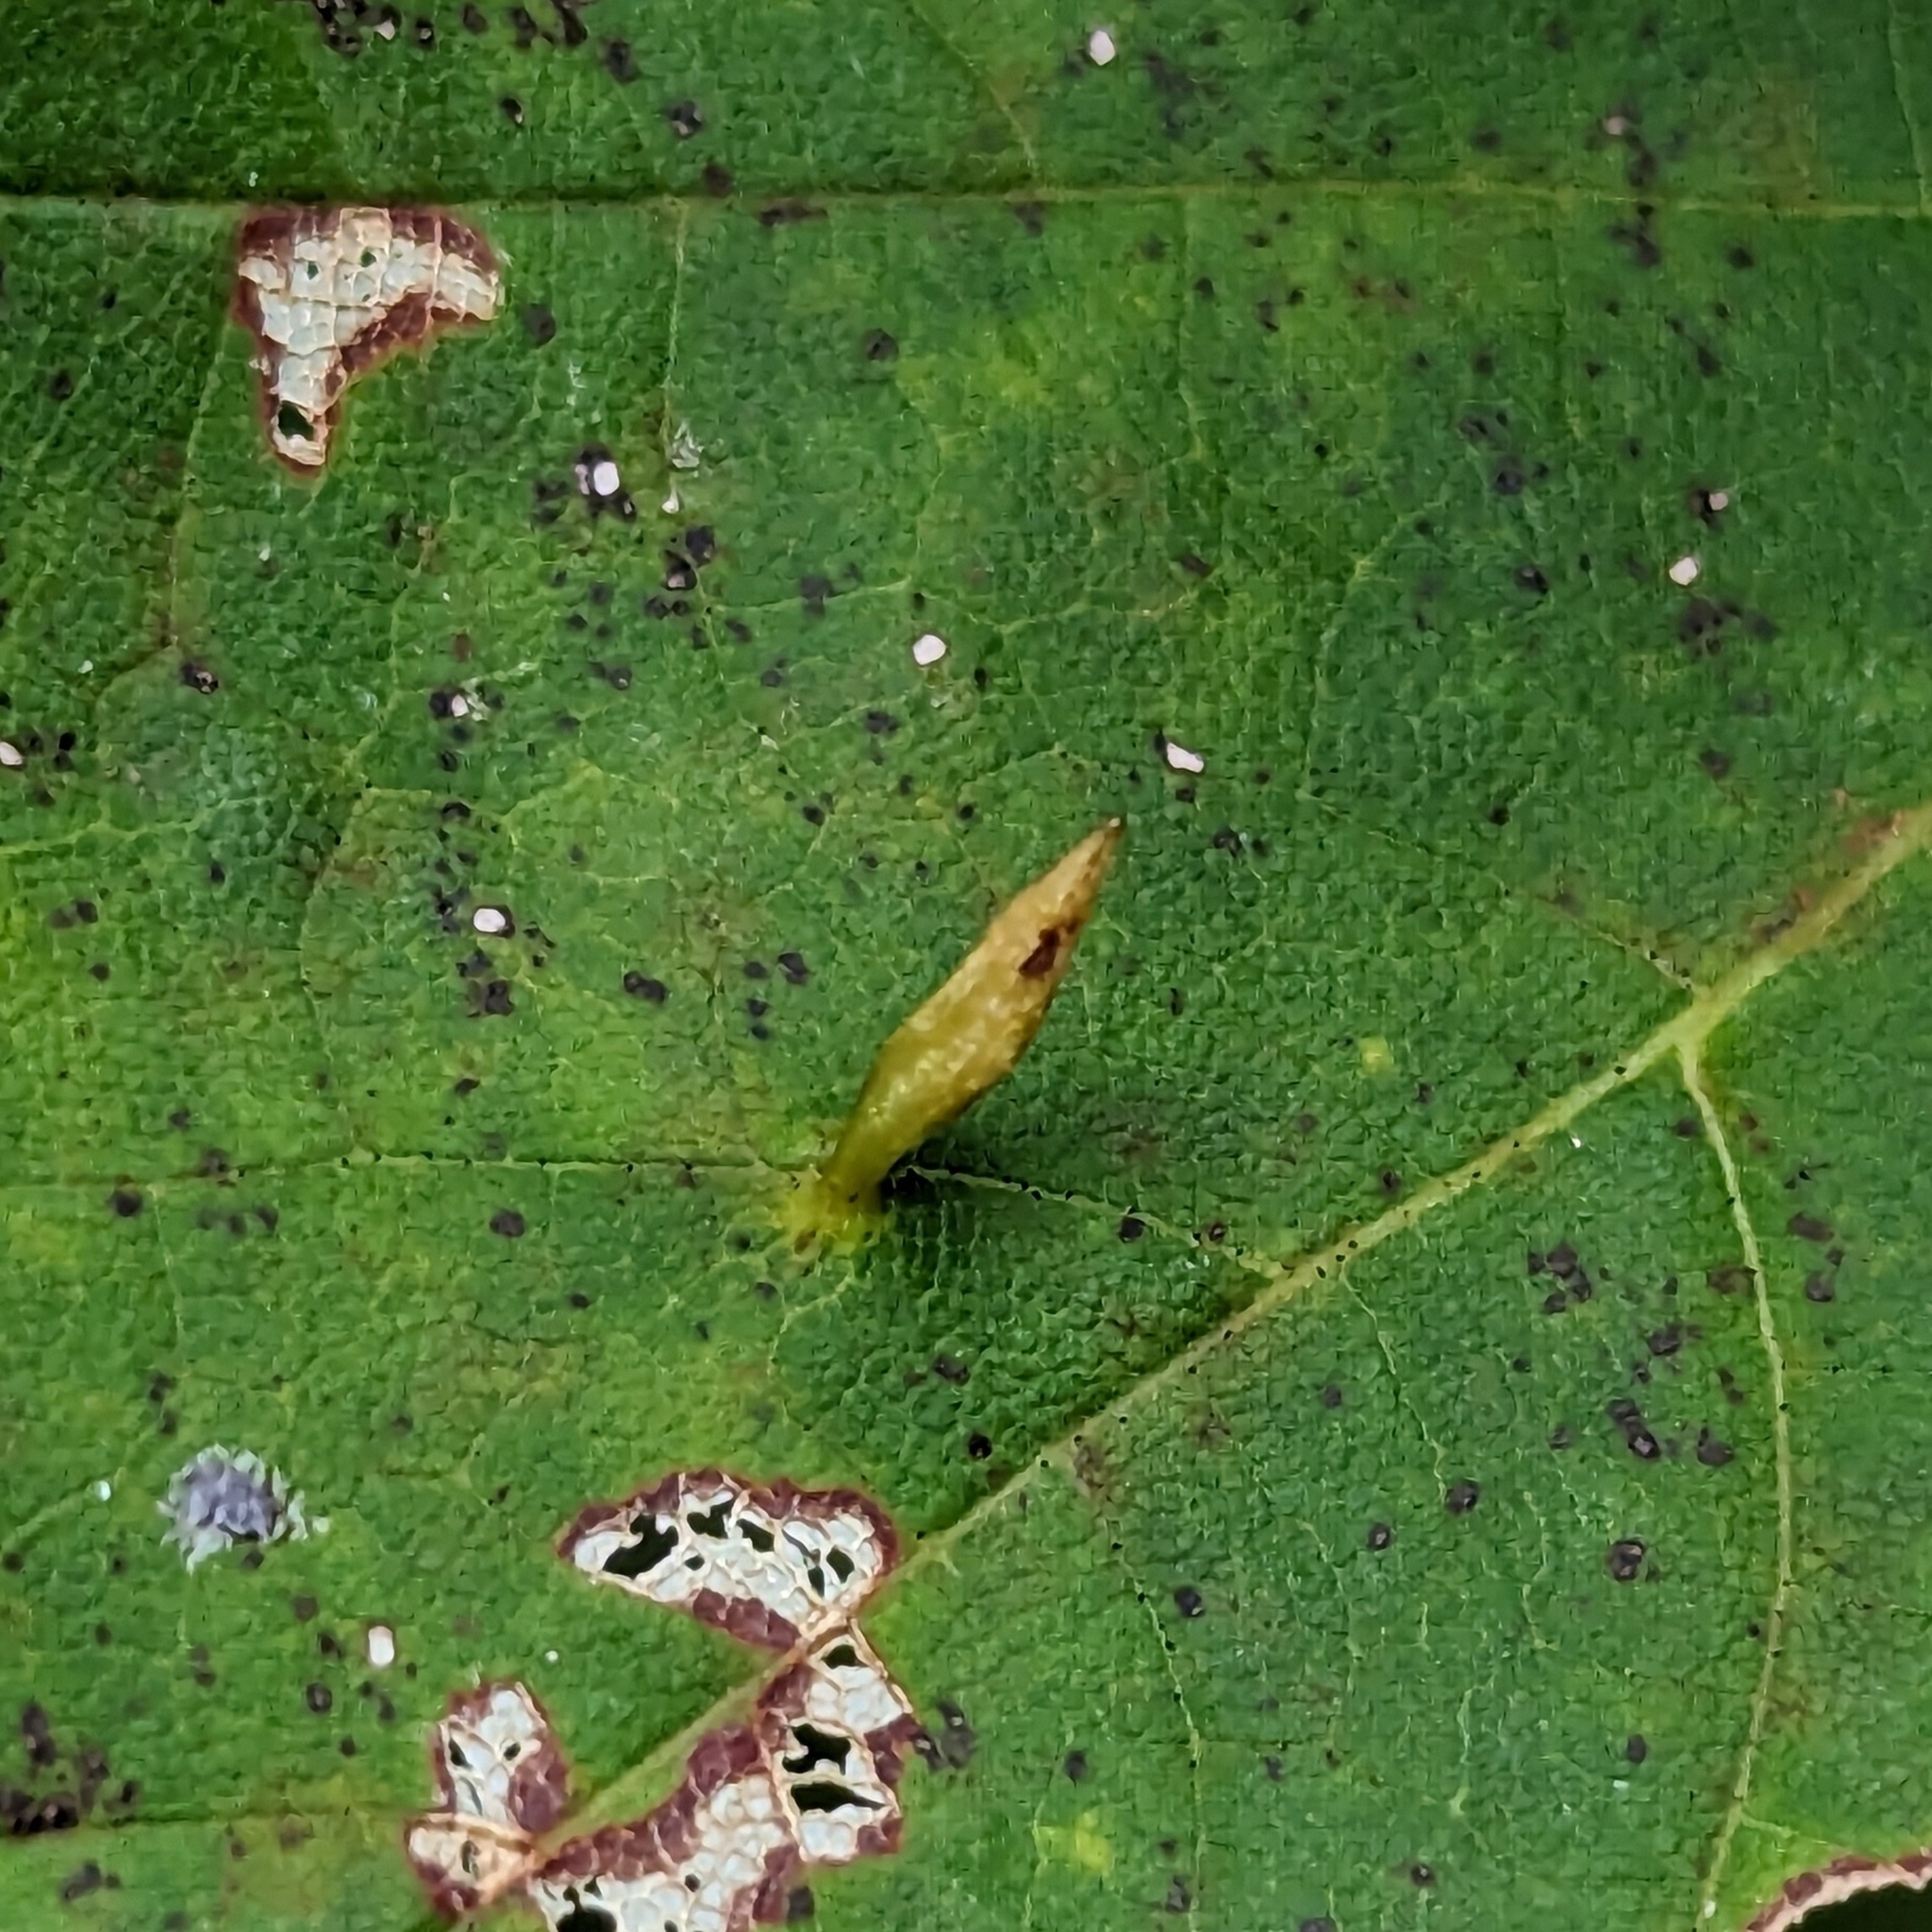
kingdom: Animalia
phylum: Arthropoda
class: Arachnida
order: Trombidiformes
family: Eriophyidae
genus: Vasates
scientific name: Vasates aceriscrumena
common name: Maple spindle gall mite
